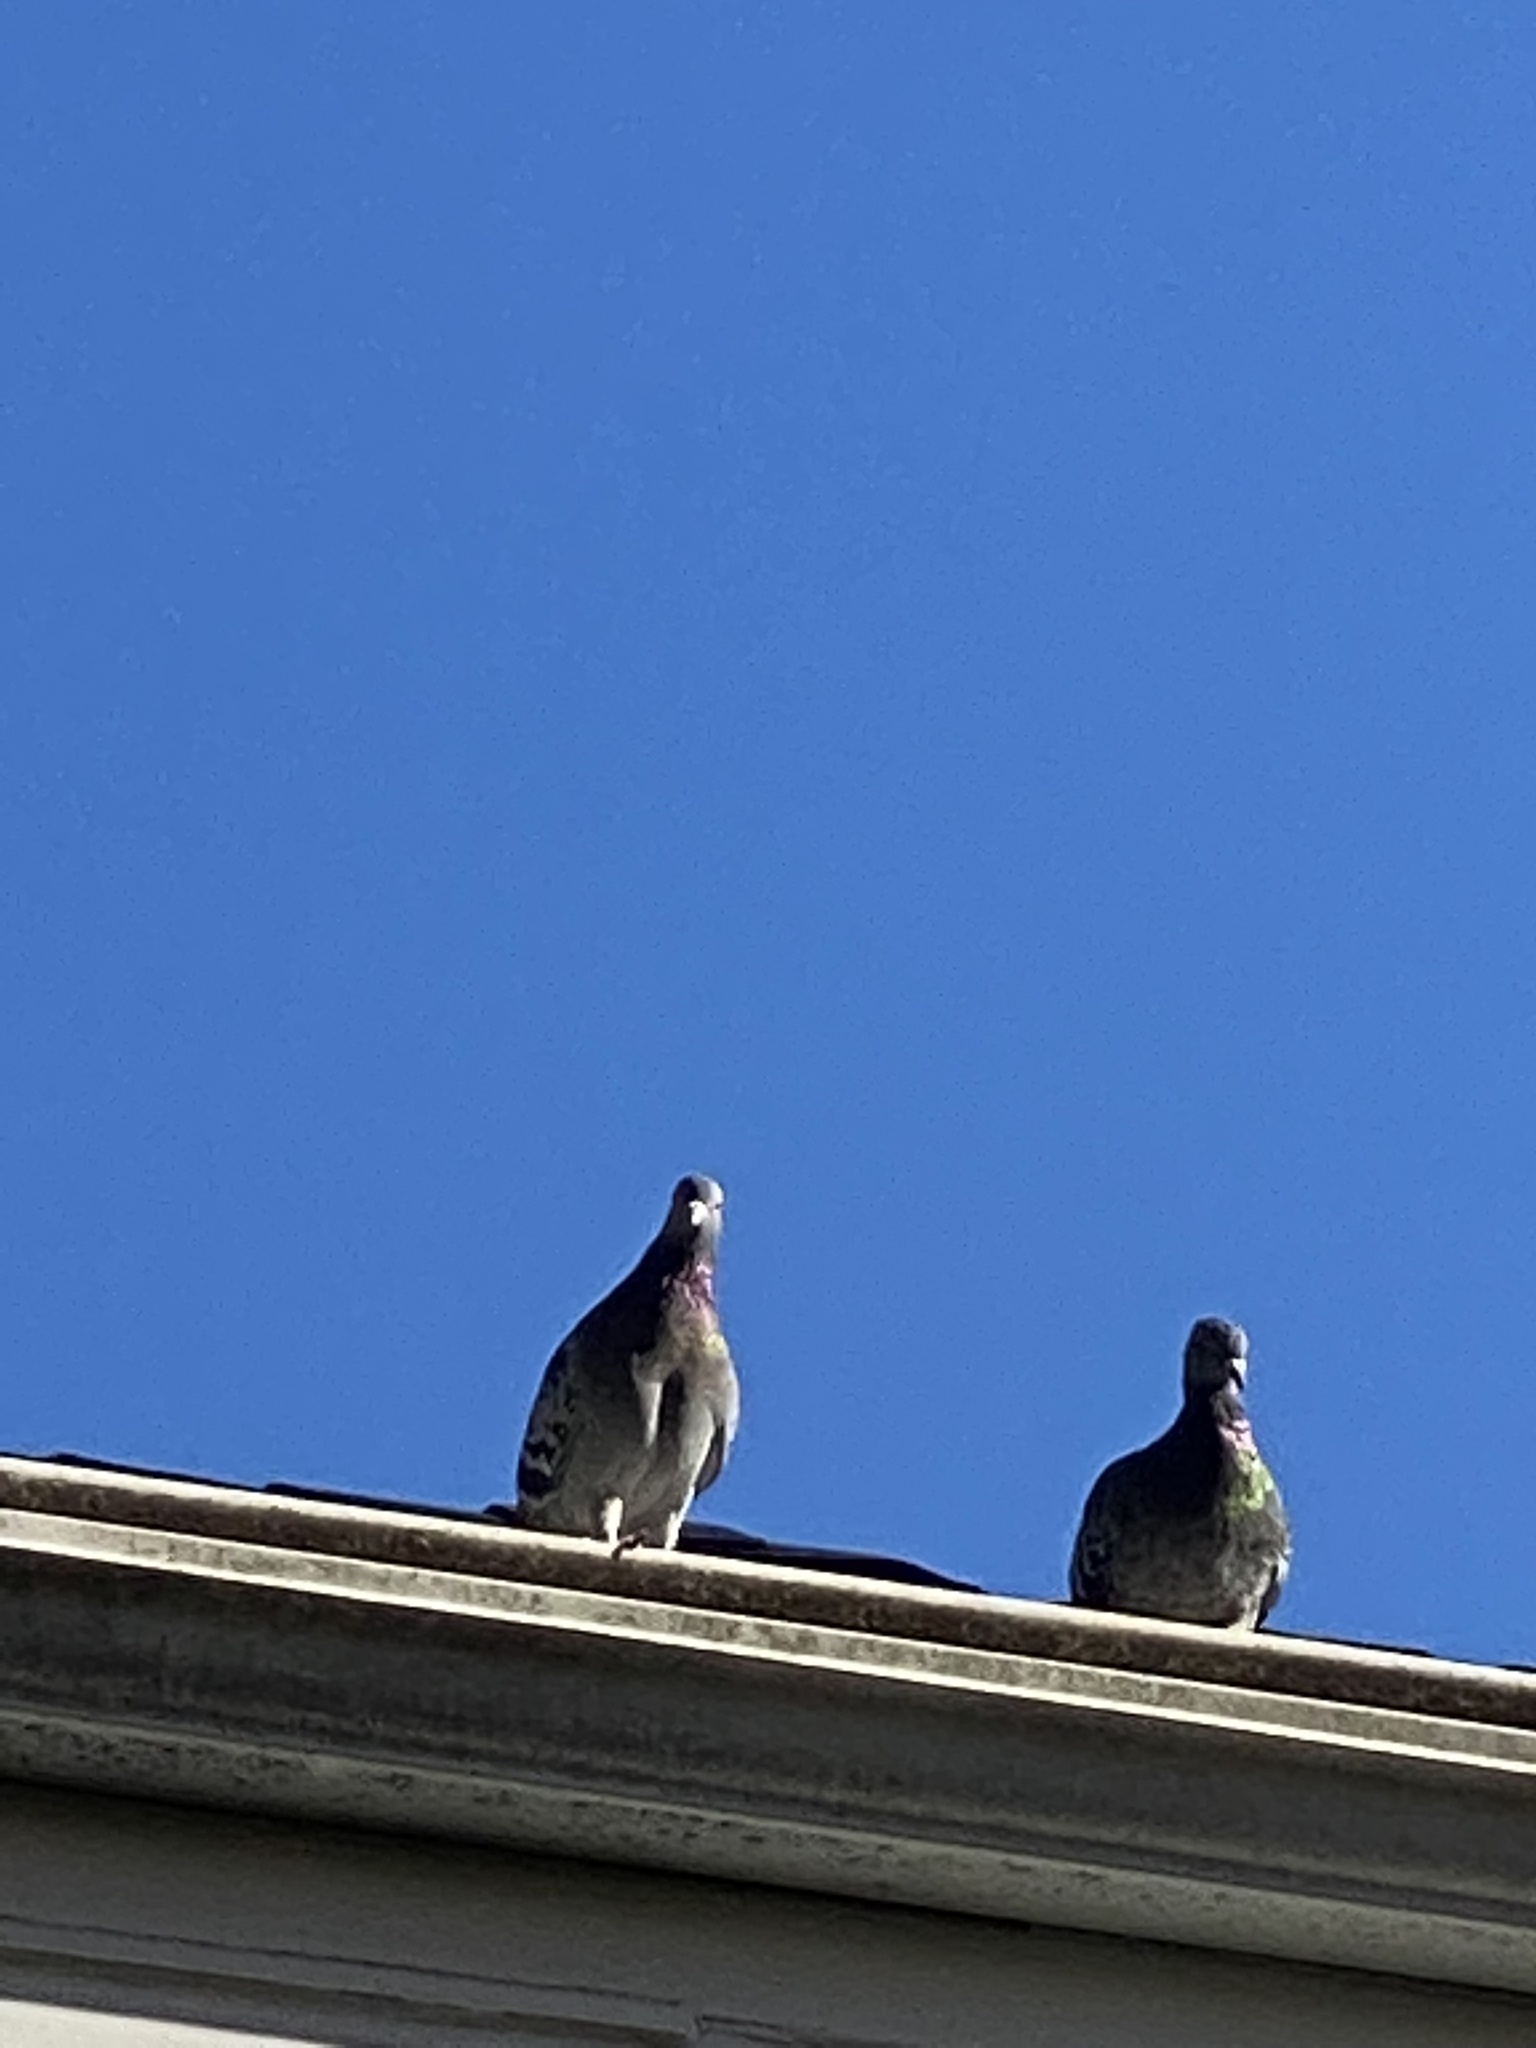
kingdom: Animalia
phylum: Chordata
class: Aves
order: Columbiformes
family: Columbidae
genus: Columba
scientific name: Columba livia
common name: Rock pigeon
